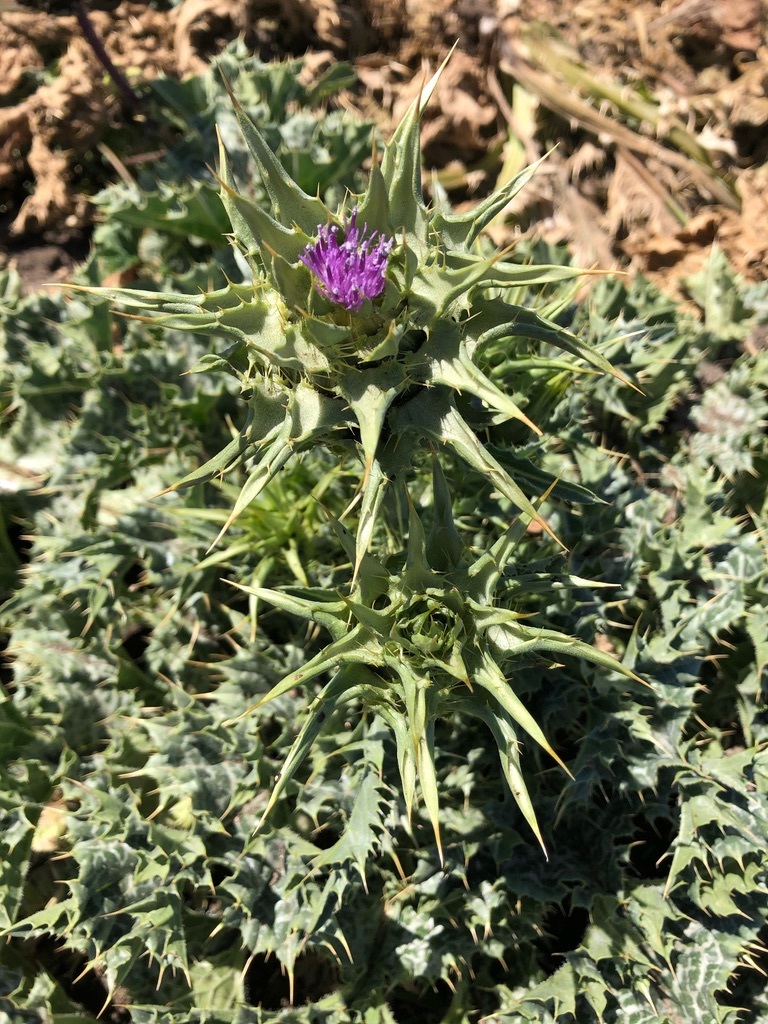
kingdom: Plantae
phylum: Tracheophyta
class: Magnoliopsida
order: Asterales
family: Asteraceae
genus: Silybum
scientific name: Silybum marianum
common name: Milk thistle
